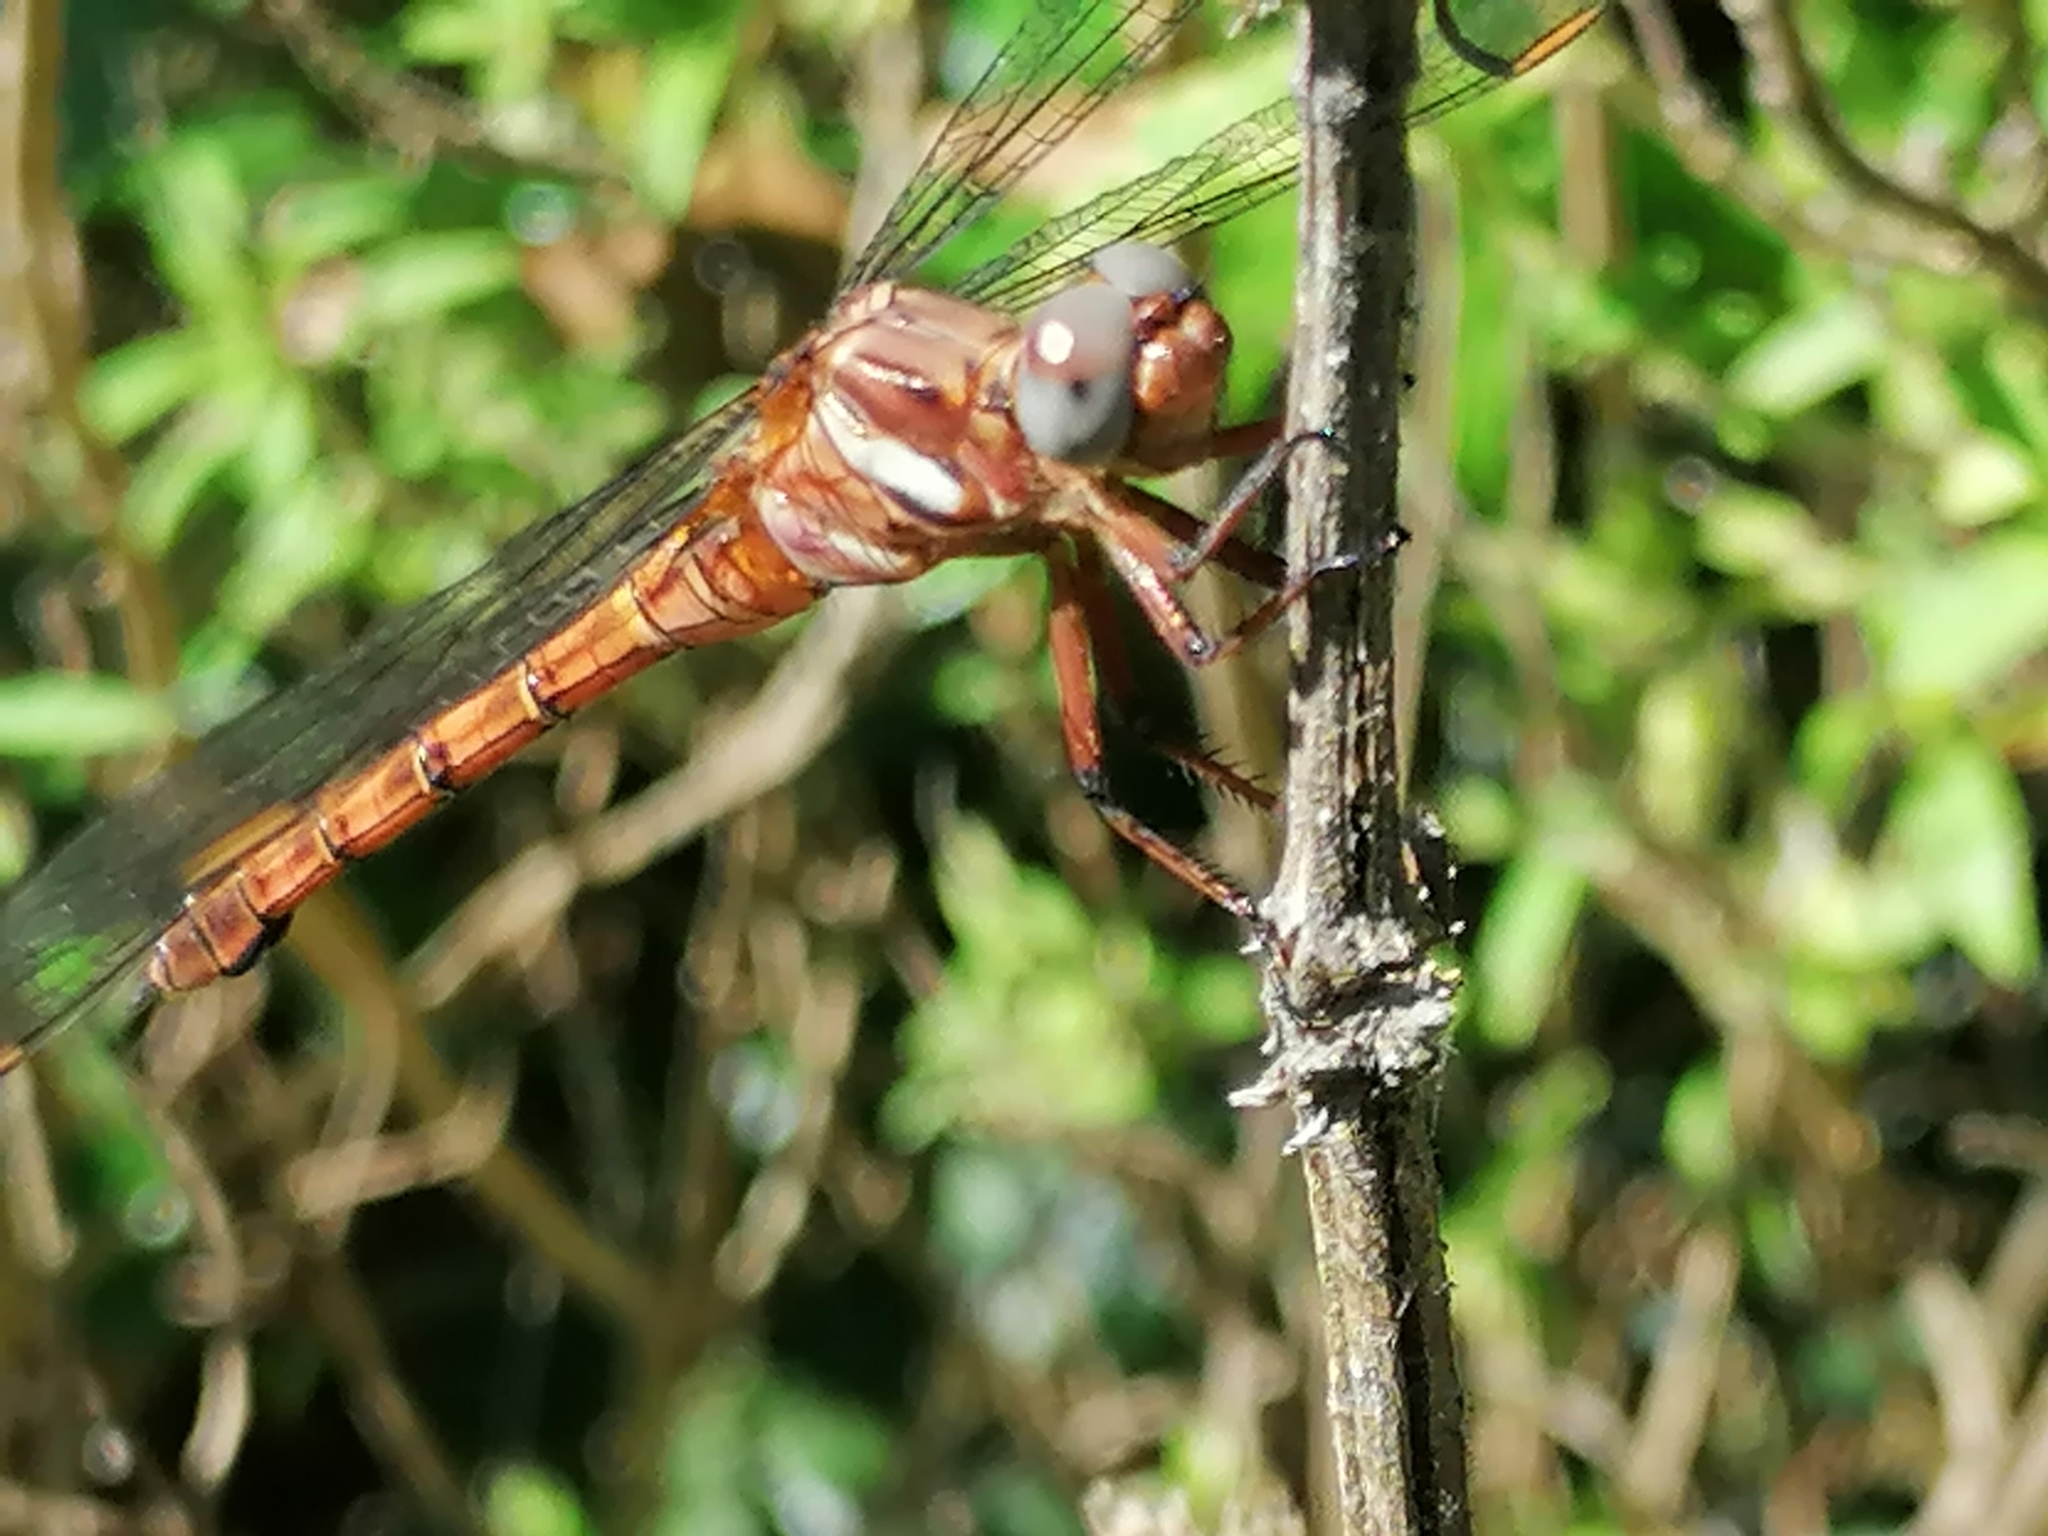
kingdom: Animalia
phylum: Arthropoda
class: Insecta
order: Odonata
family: Libellulidae
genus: Orthetrum
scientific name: Orthetrum julia
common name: Julia skimmer
